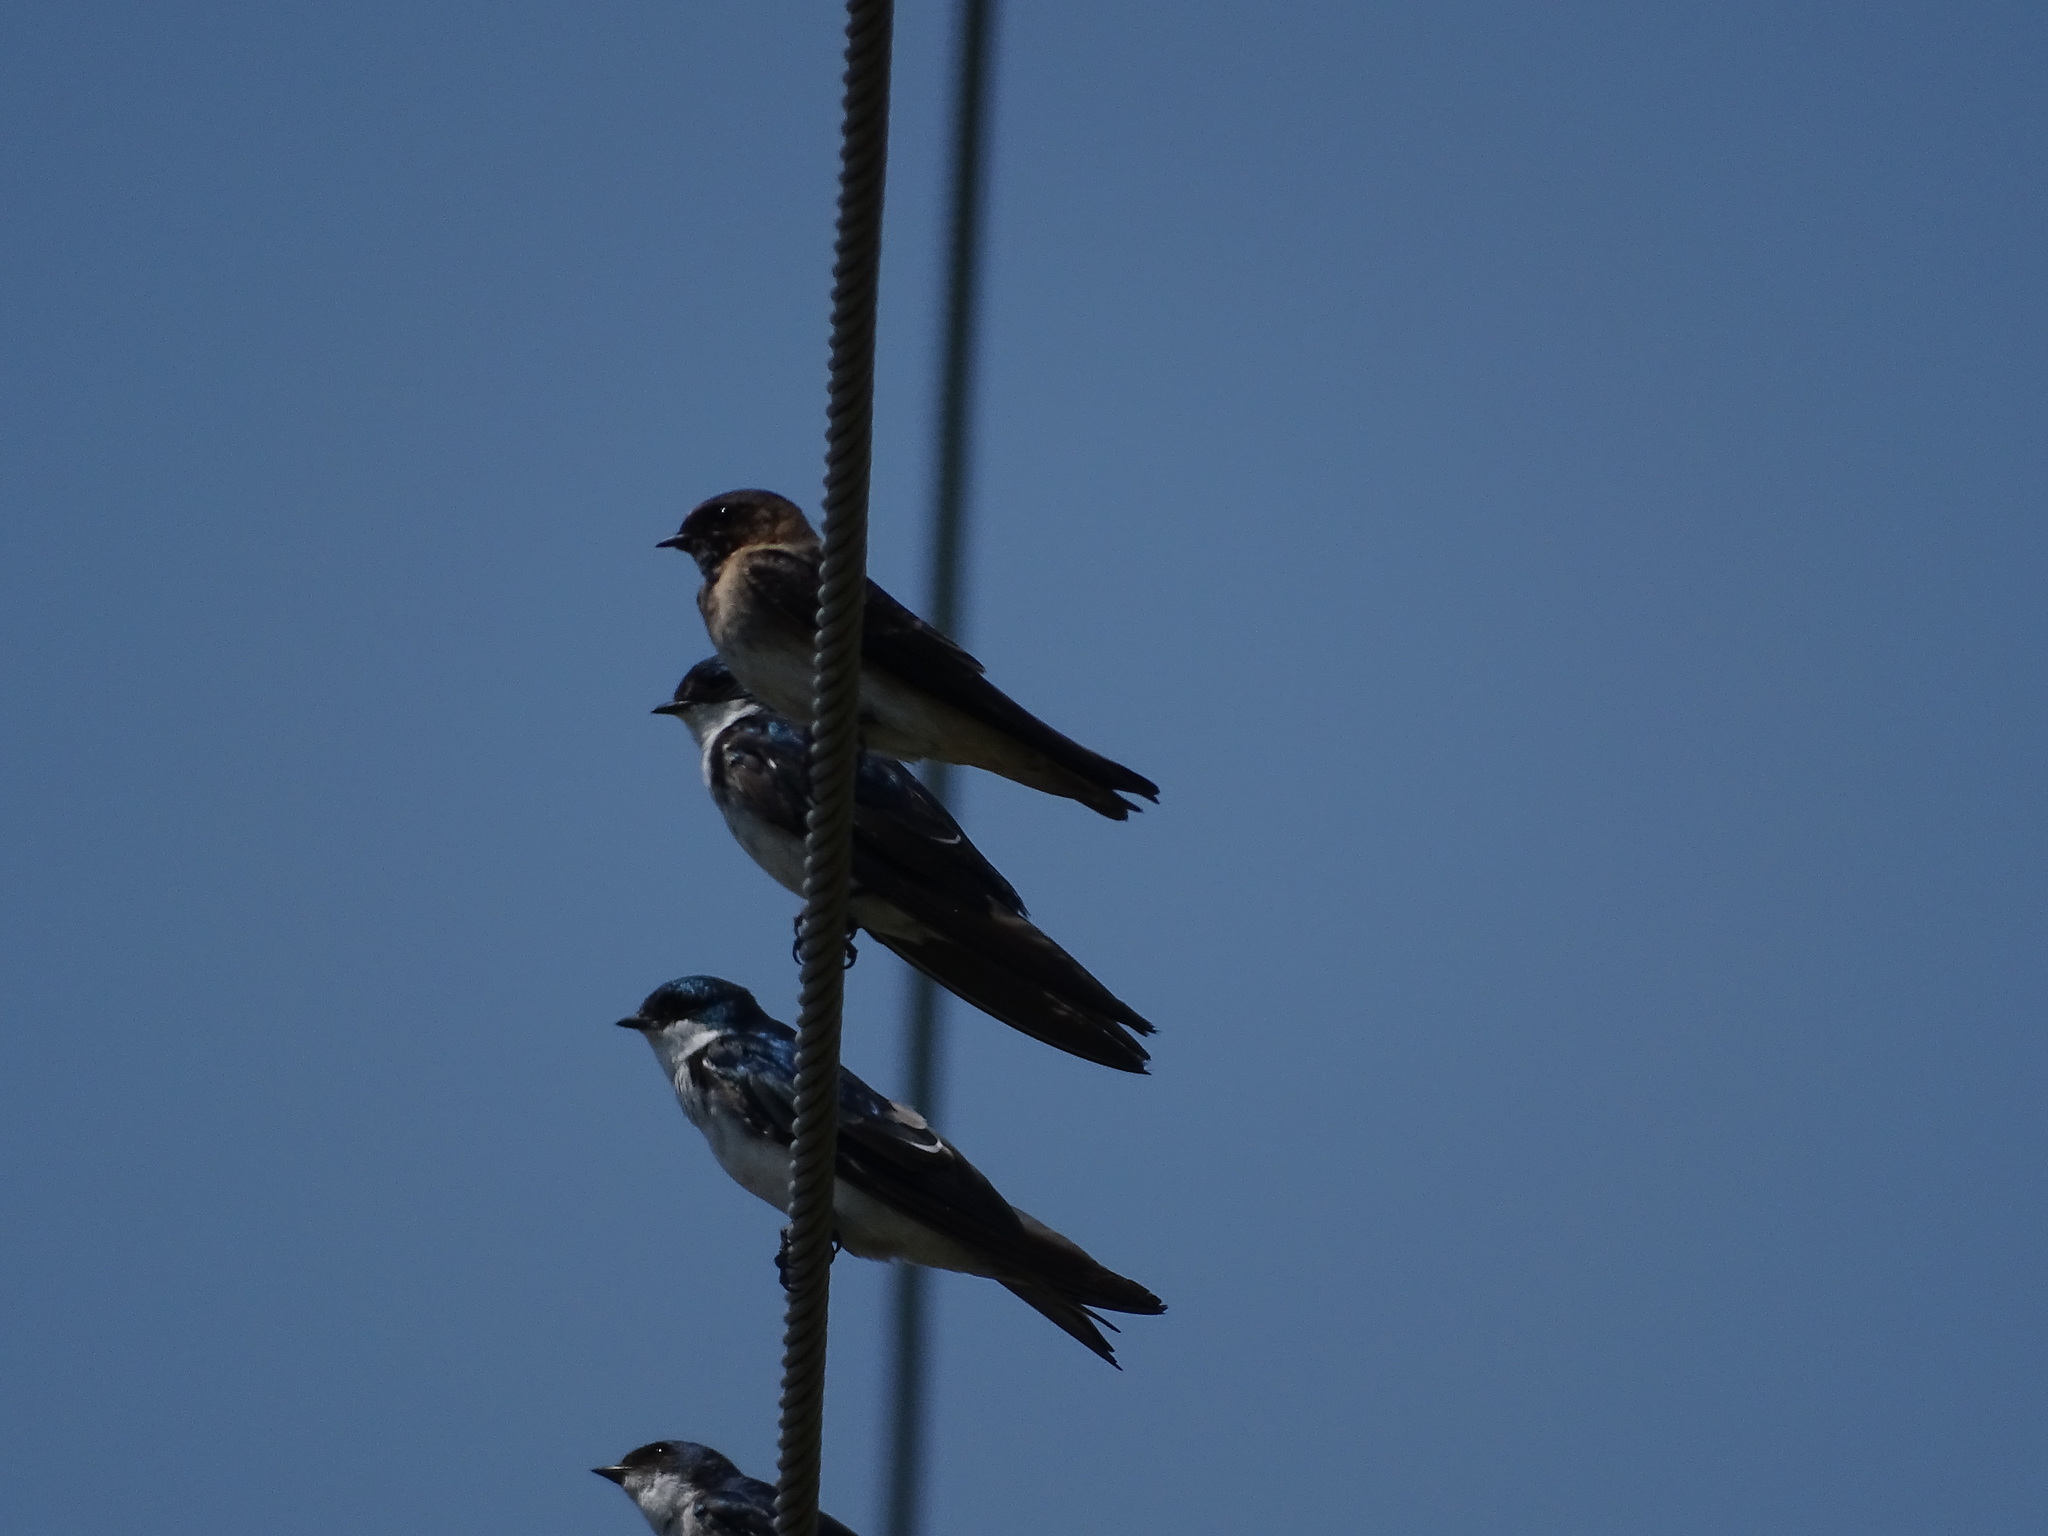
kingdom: Animalia
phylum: Chordata
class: Aves
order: Passeriformes
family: Hirundinidae
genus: Petrochelidon
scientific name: Petrochelidon pyrrhonota
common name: American cliff swallow
